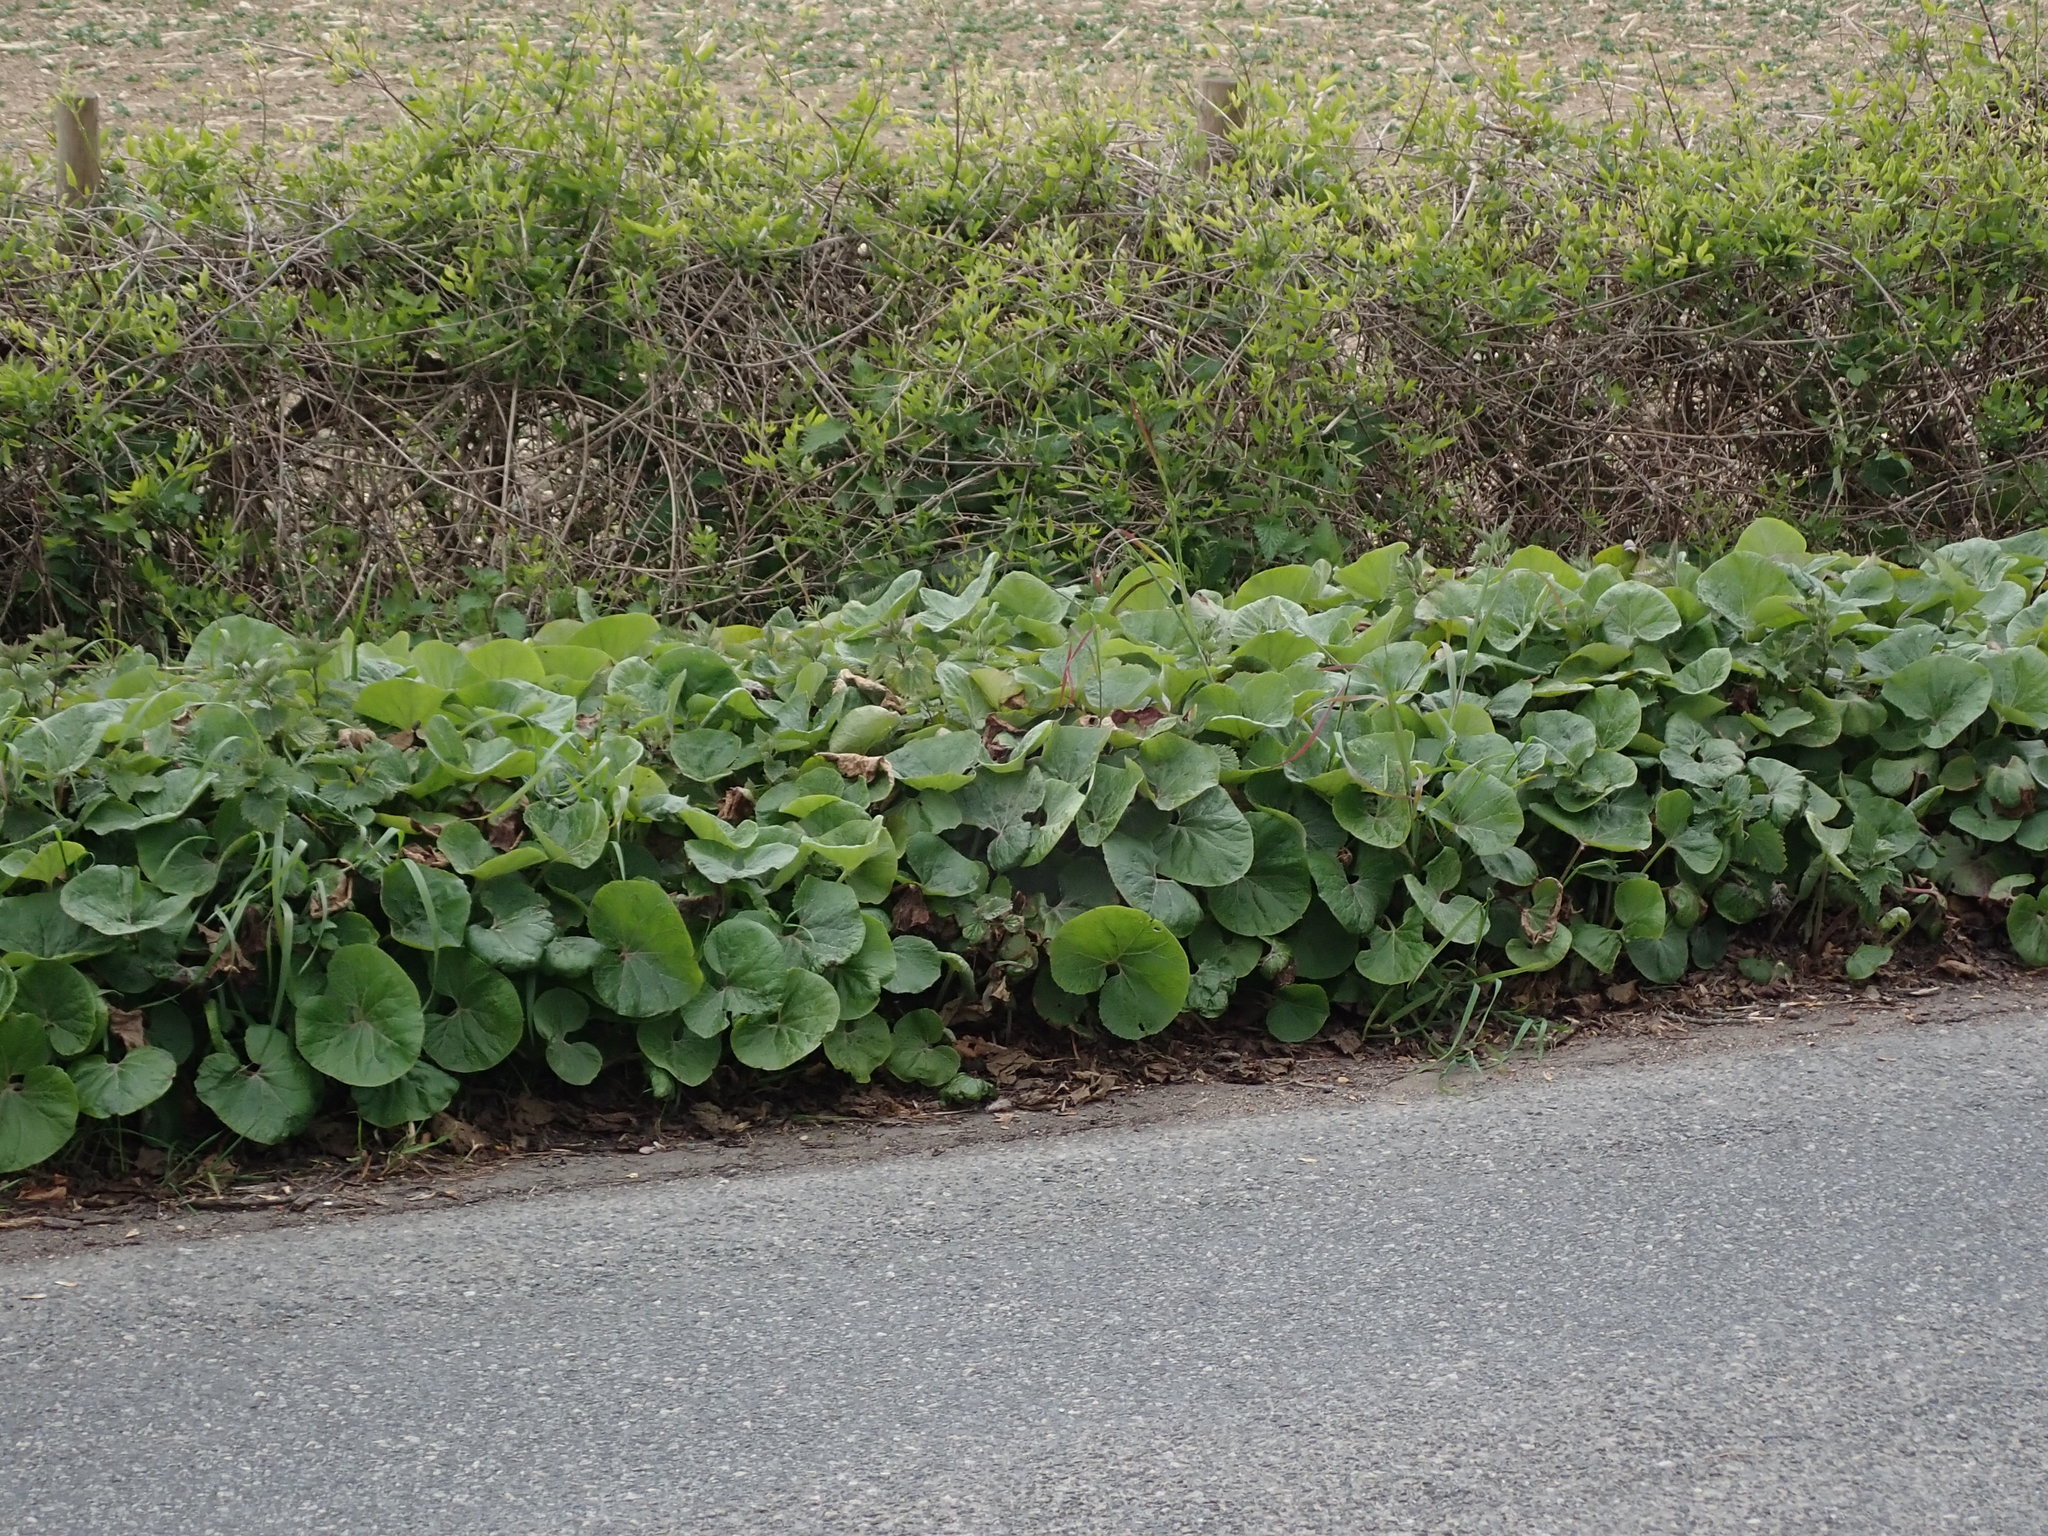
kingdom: Plantae
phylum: Tracheophyta
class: Magnoliopsida
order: Asterales
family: Asteraceae
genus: Petasites
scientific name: Petasites pyrenaicus
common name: Winter heliotrope
